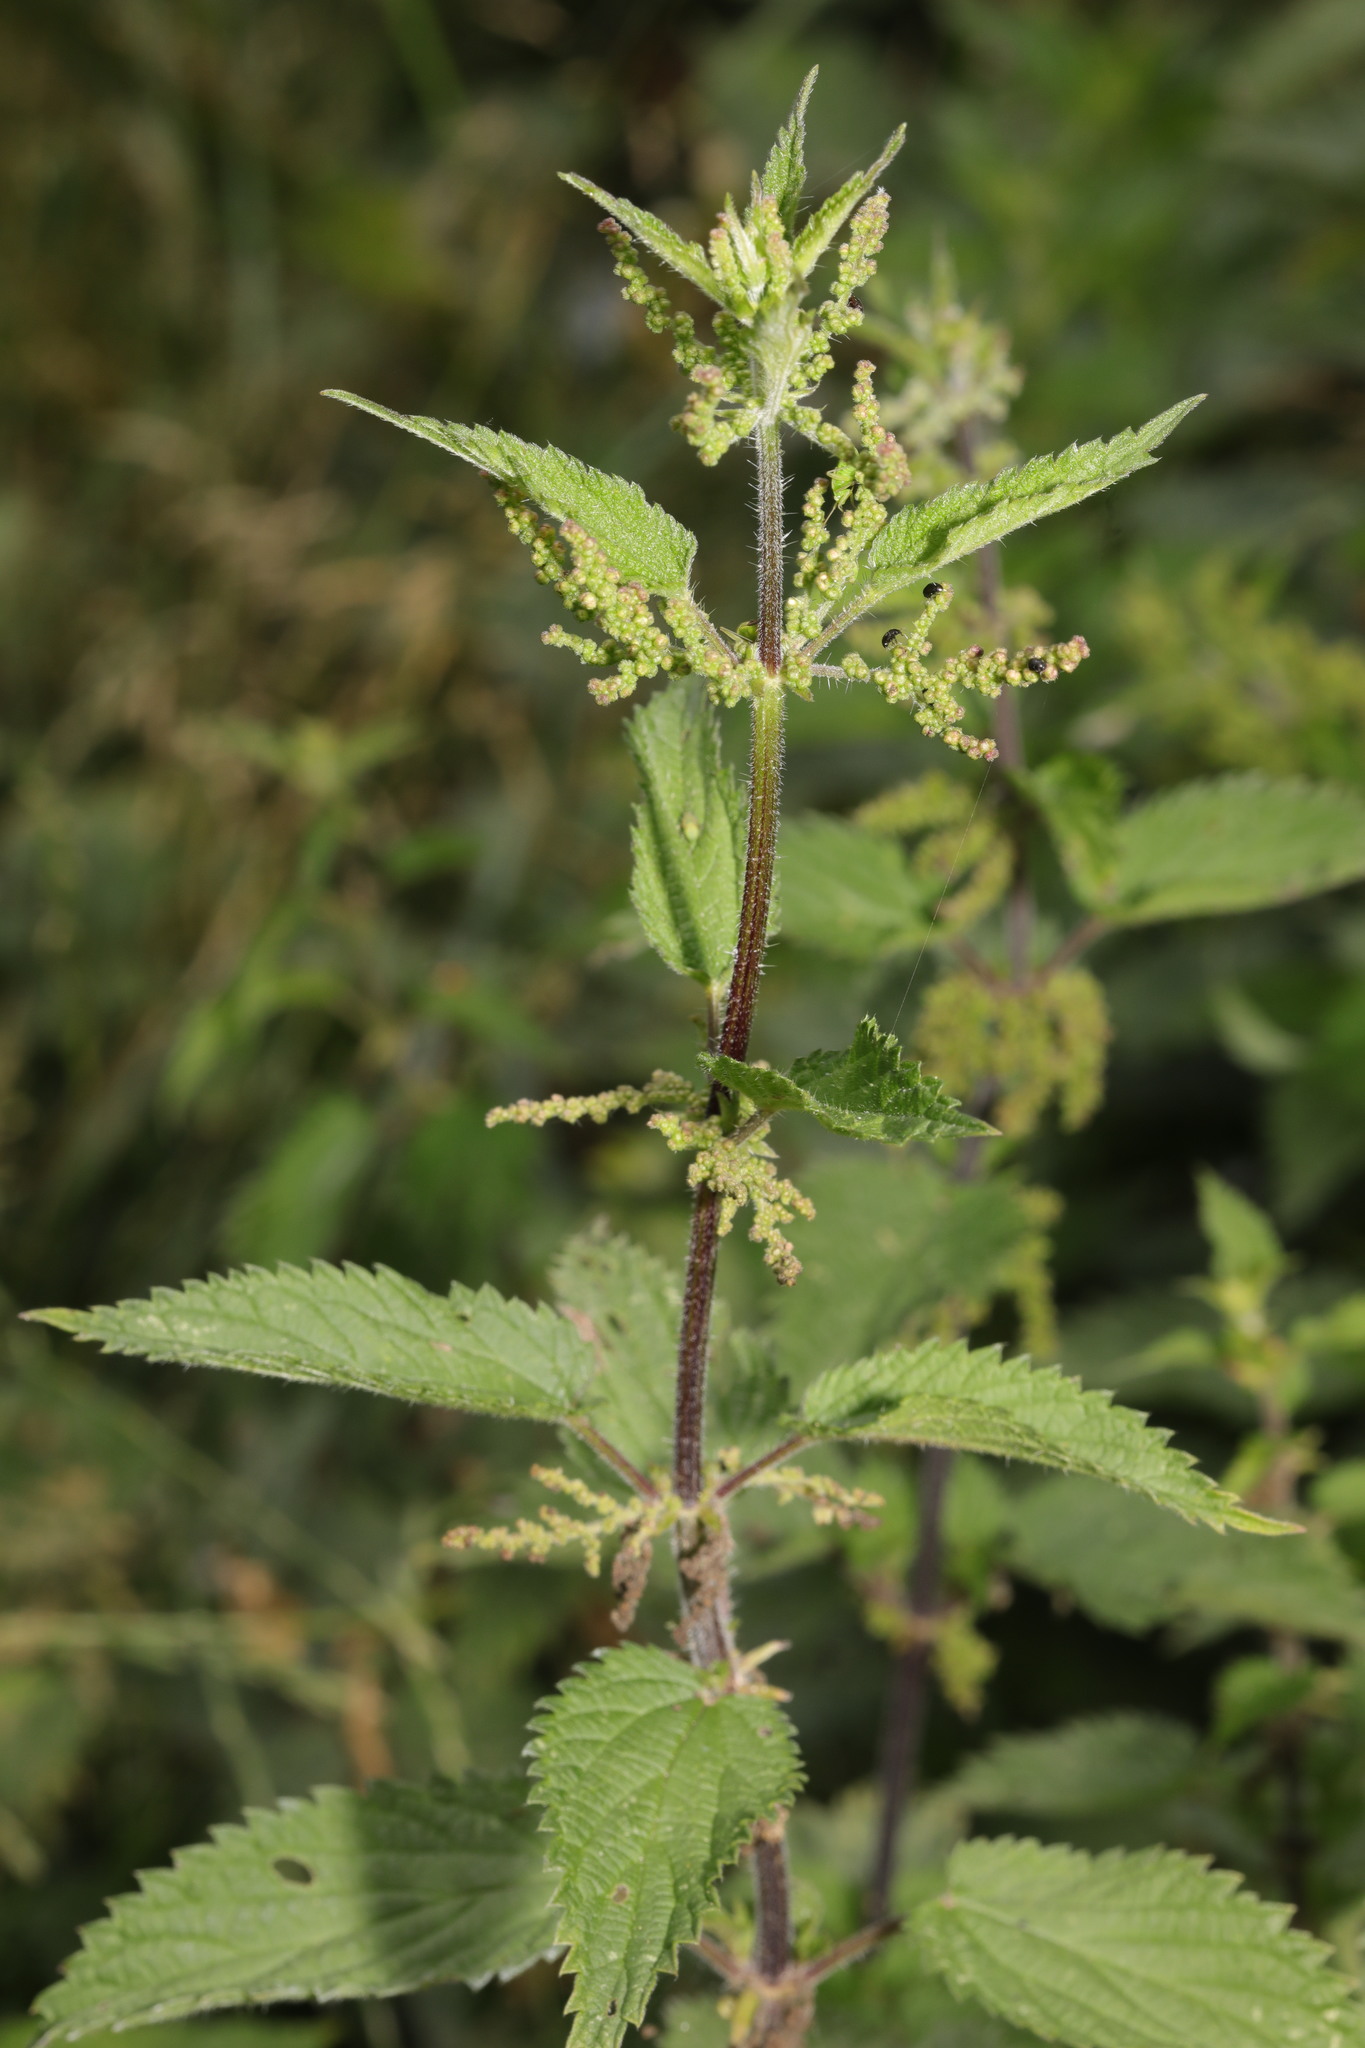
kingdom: Plantae
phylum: Tracheophyta
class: Magnoliopsida
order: Rosales
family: Urticaceae
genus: Urtica
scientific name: Urtica dioica
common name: Common nettle
